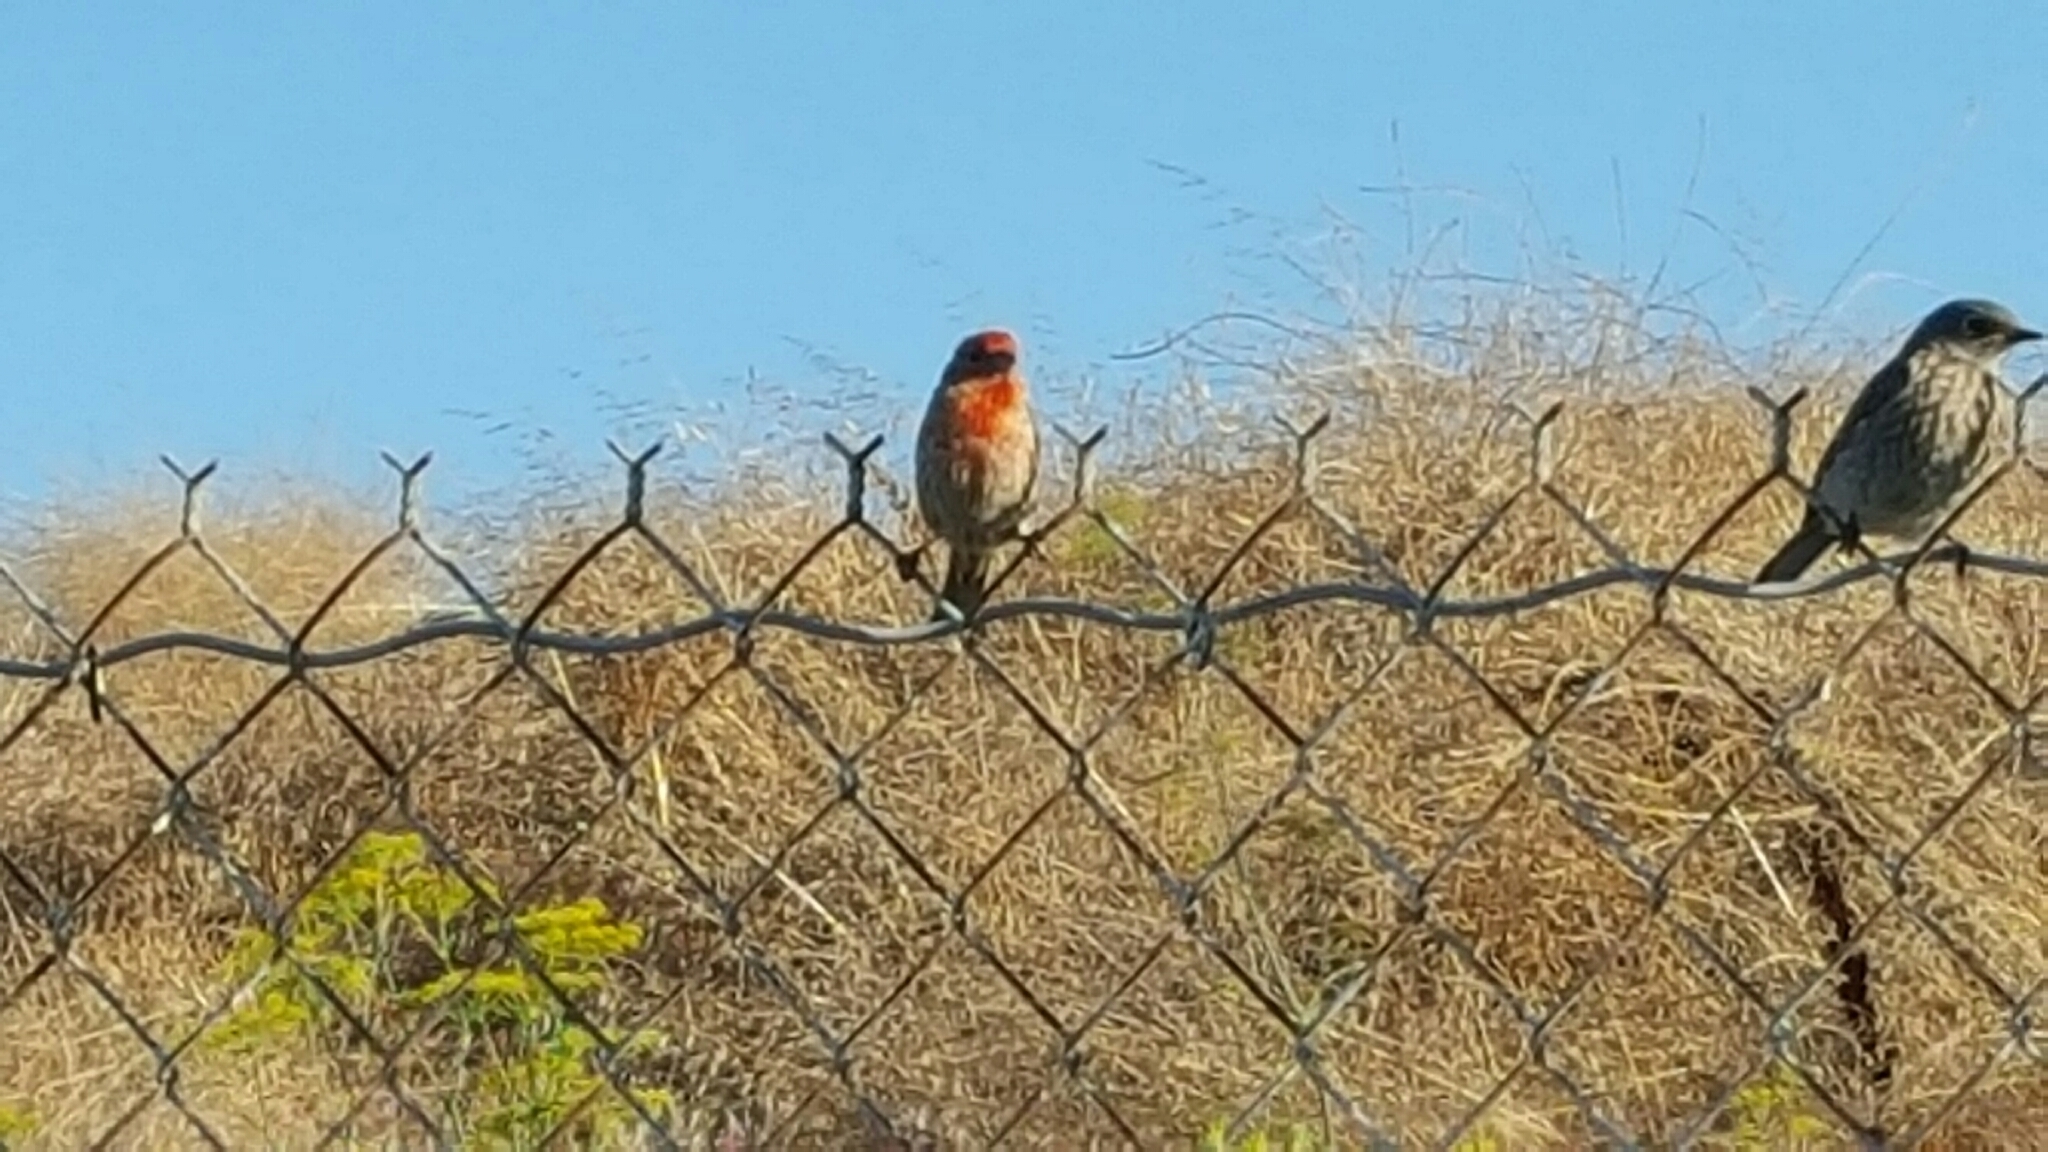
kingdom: Animalia
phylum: Chordata
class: Aves
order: Passeriformes
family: Fringillidae
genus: Haemorhous
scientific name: Haemorhous mexicanus
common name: House finch
